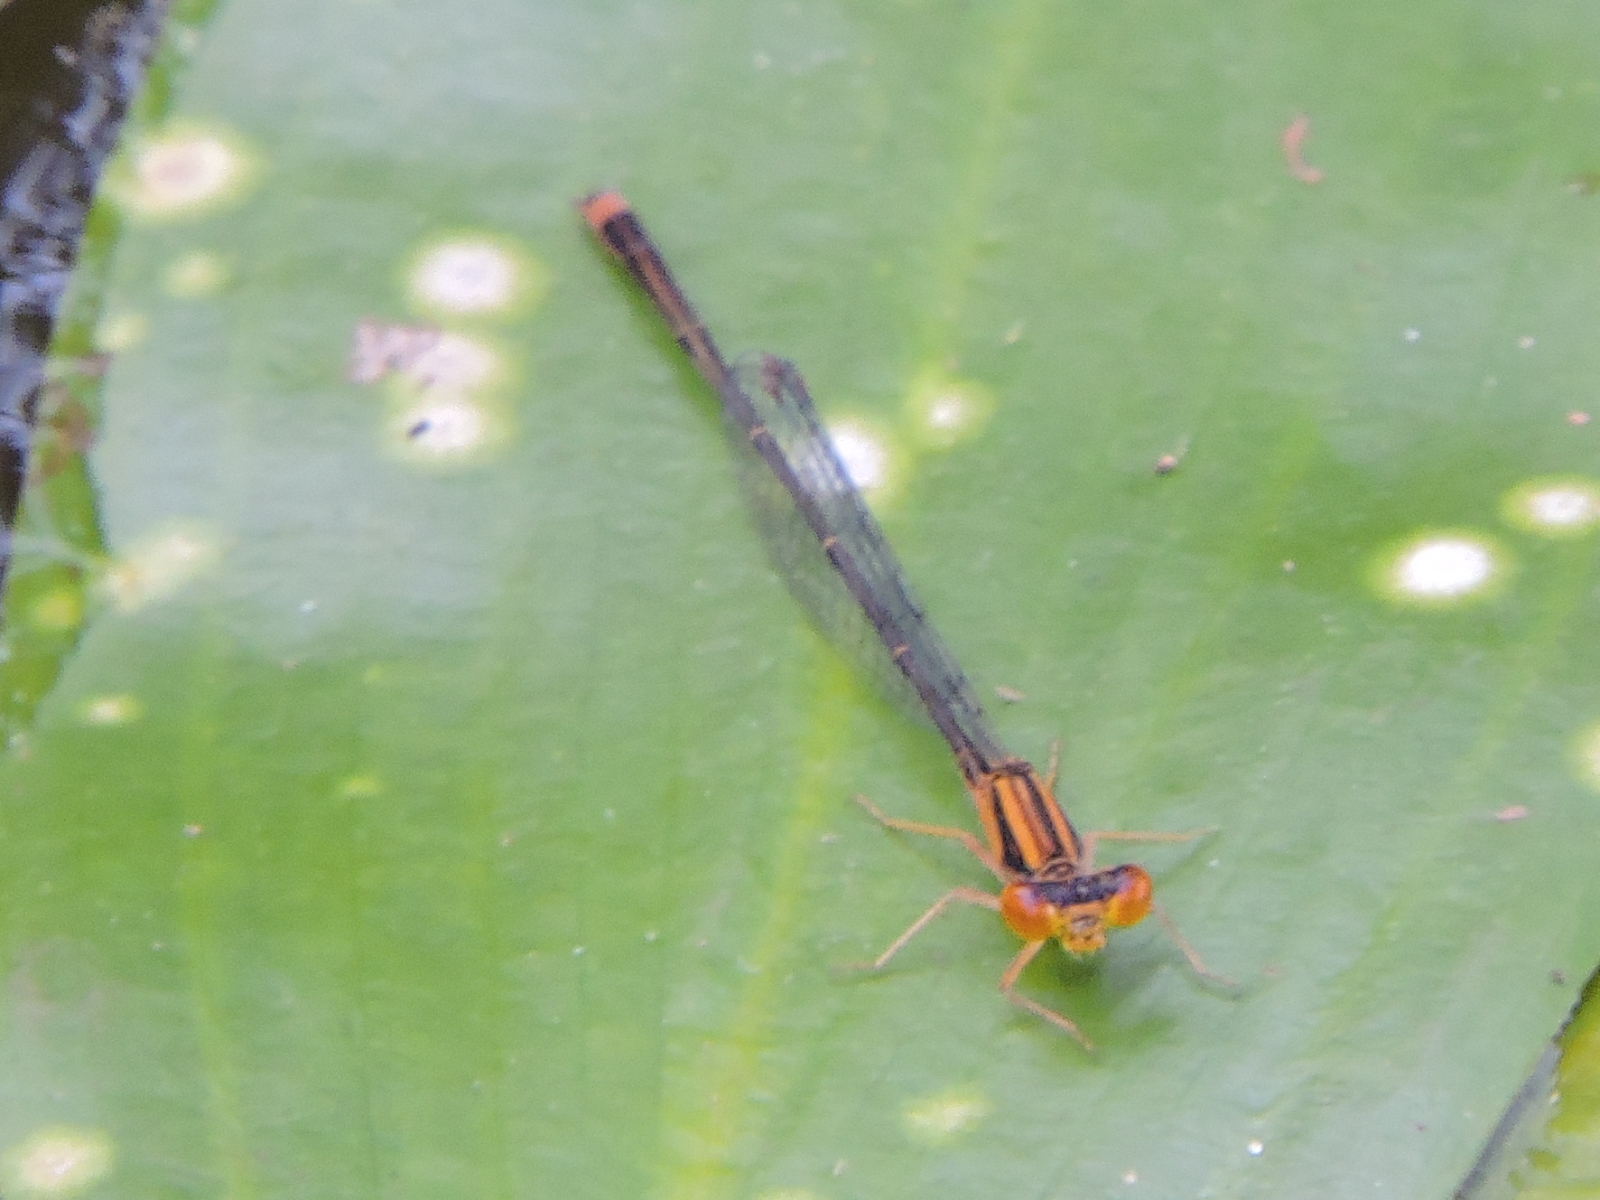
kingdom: Animalia
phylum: Arthropoda
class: Insecta
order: Odonata
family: Coenagrionidae
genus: Enallagma
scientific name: Enallagma signatum
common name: Orange bluet
